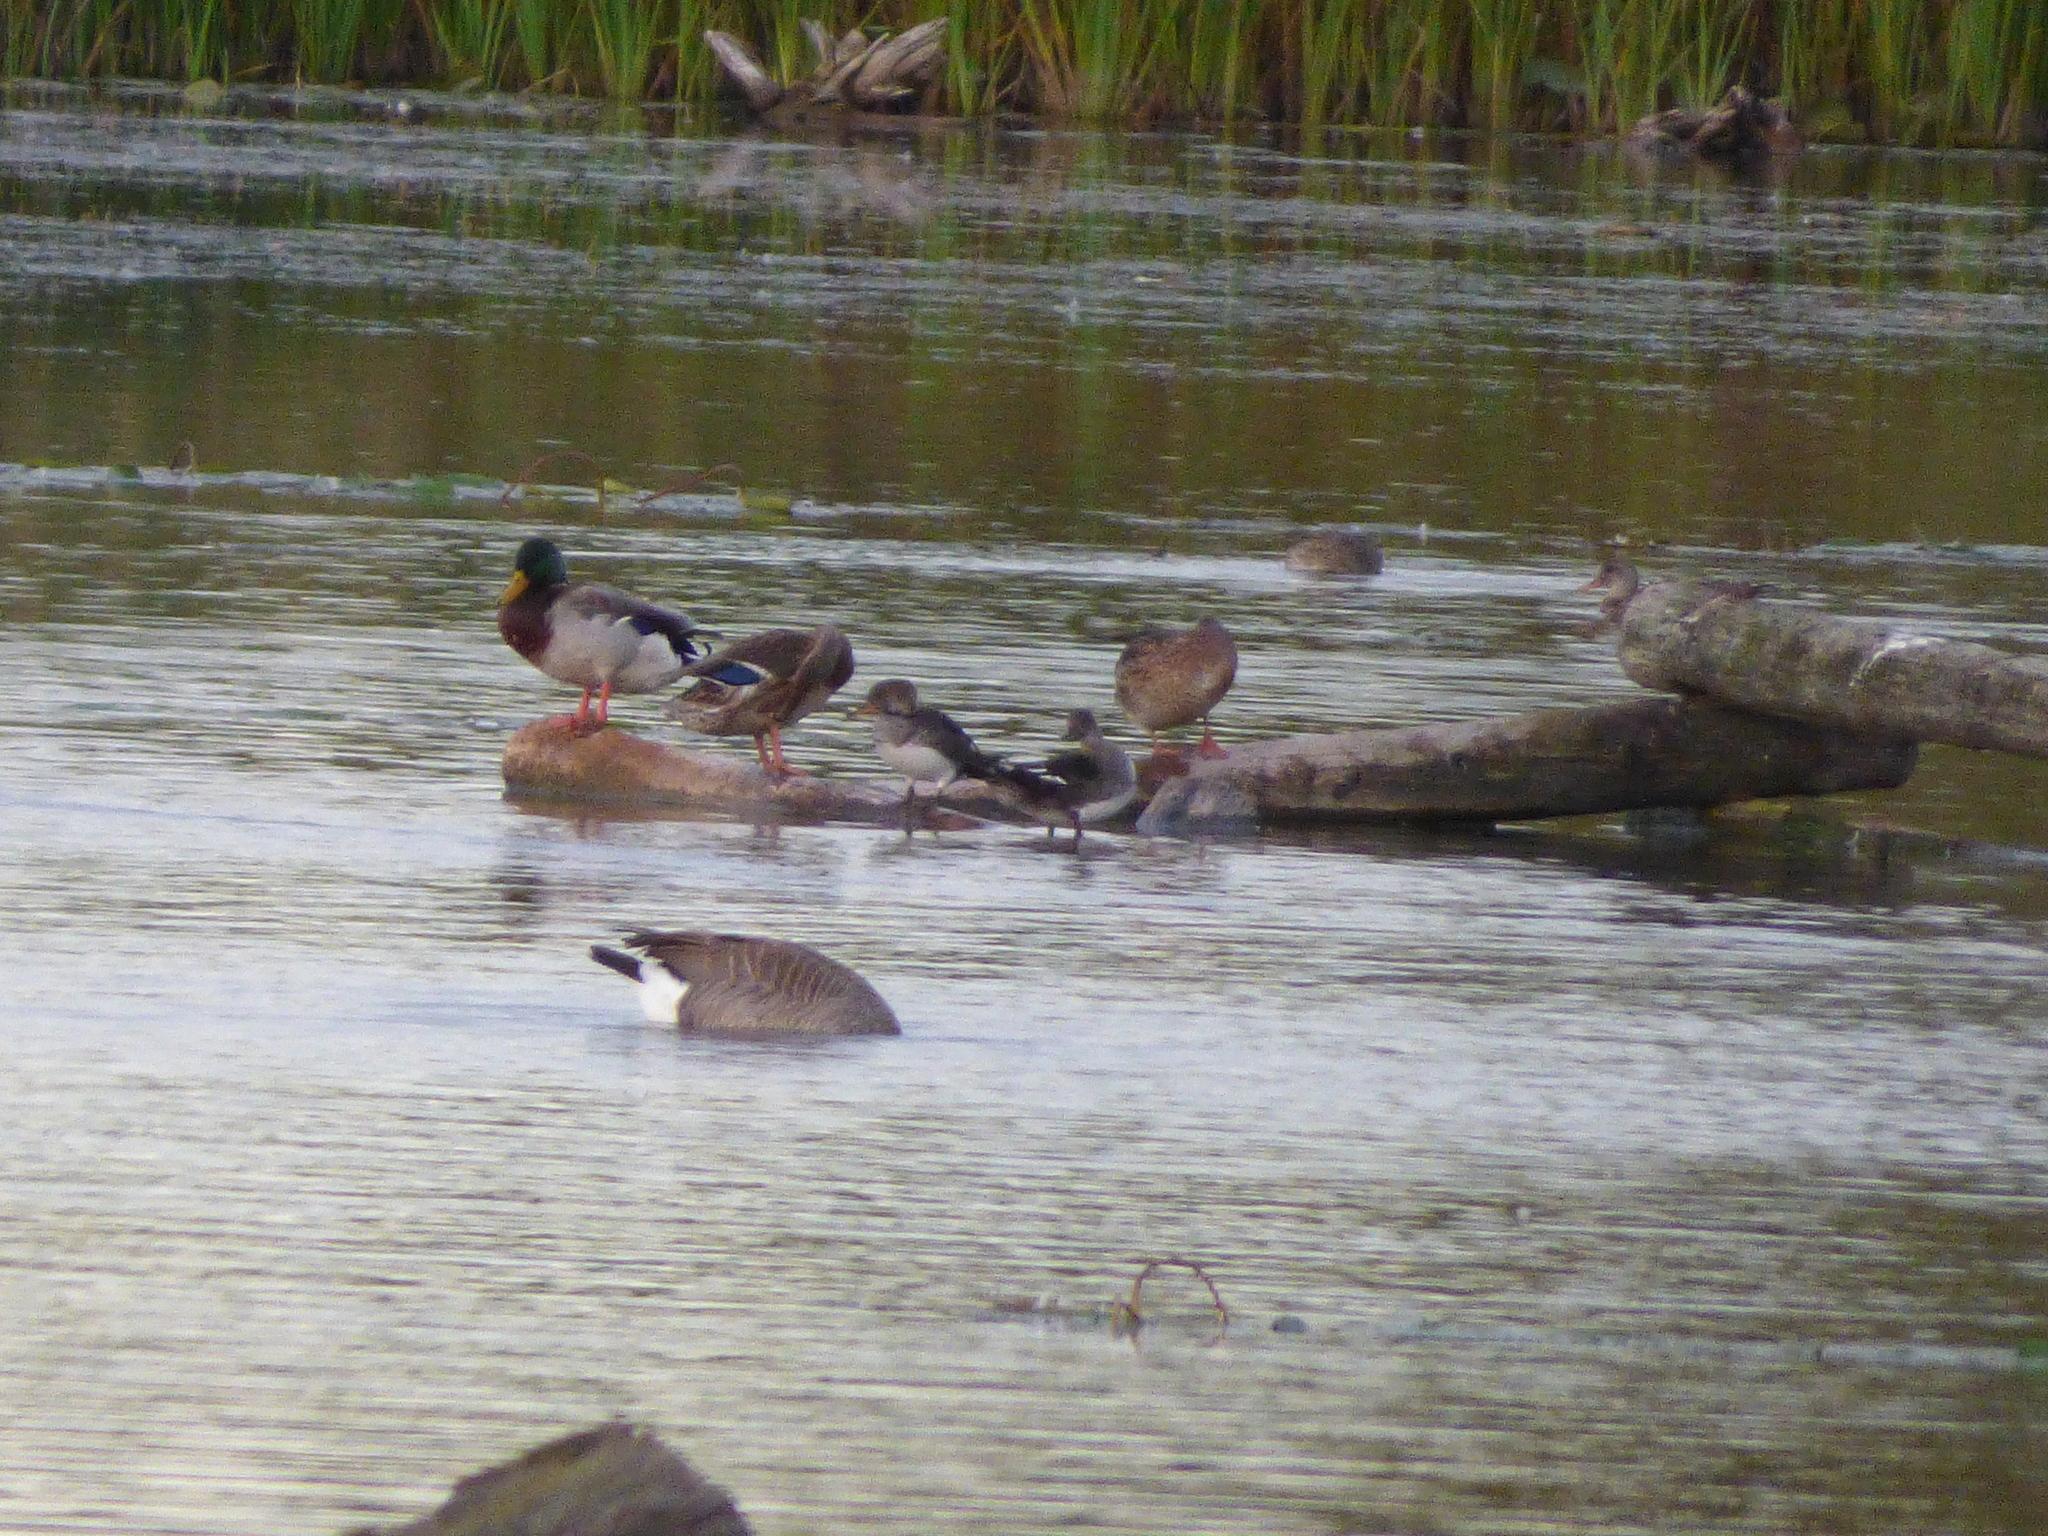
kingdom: Animalia
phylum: Chordata
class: Aves
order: Anseriformes
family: Anatidae
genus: Lophodytes
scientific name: Lophodytes cucullatus
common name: Hooded merganser
